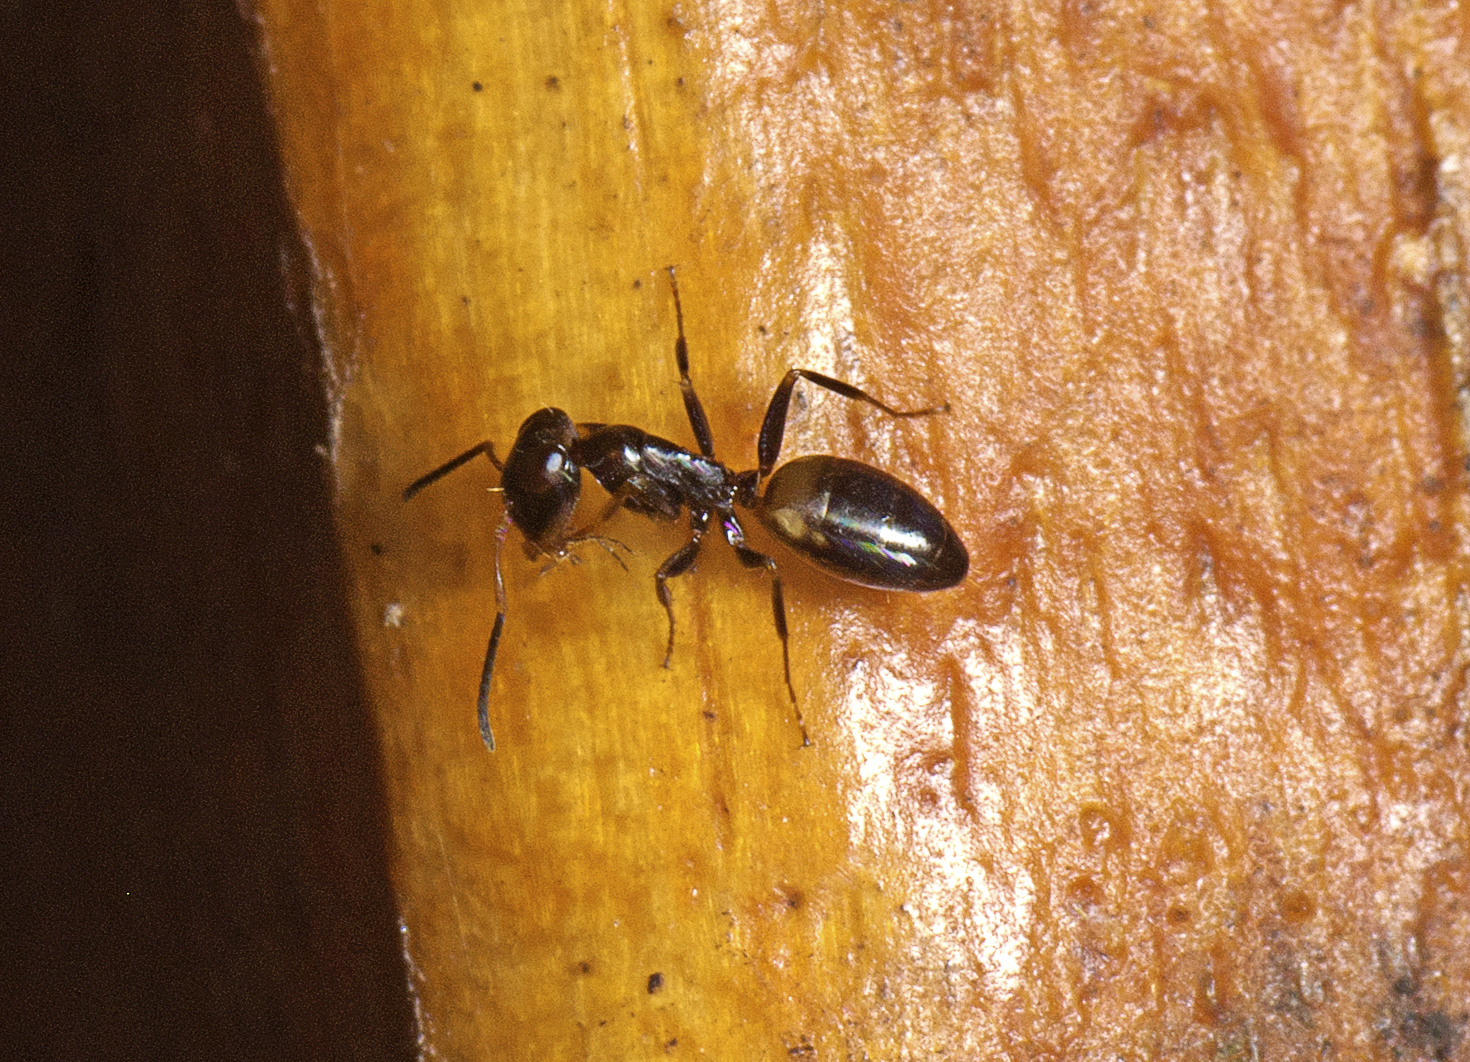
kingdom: Animalia
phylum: Arthropoda
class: Insecta
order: Hymenoptera
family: Formicidae
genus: Opisthopsis
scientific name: Opisthopsis respiciens
